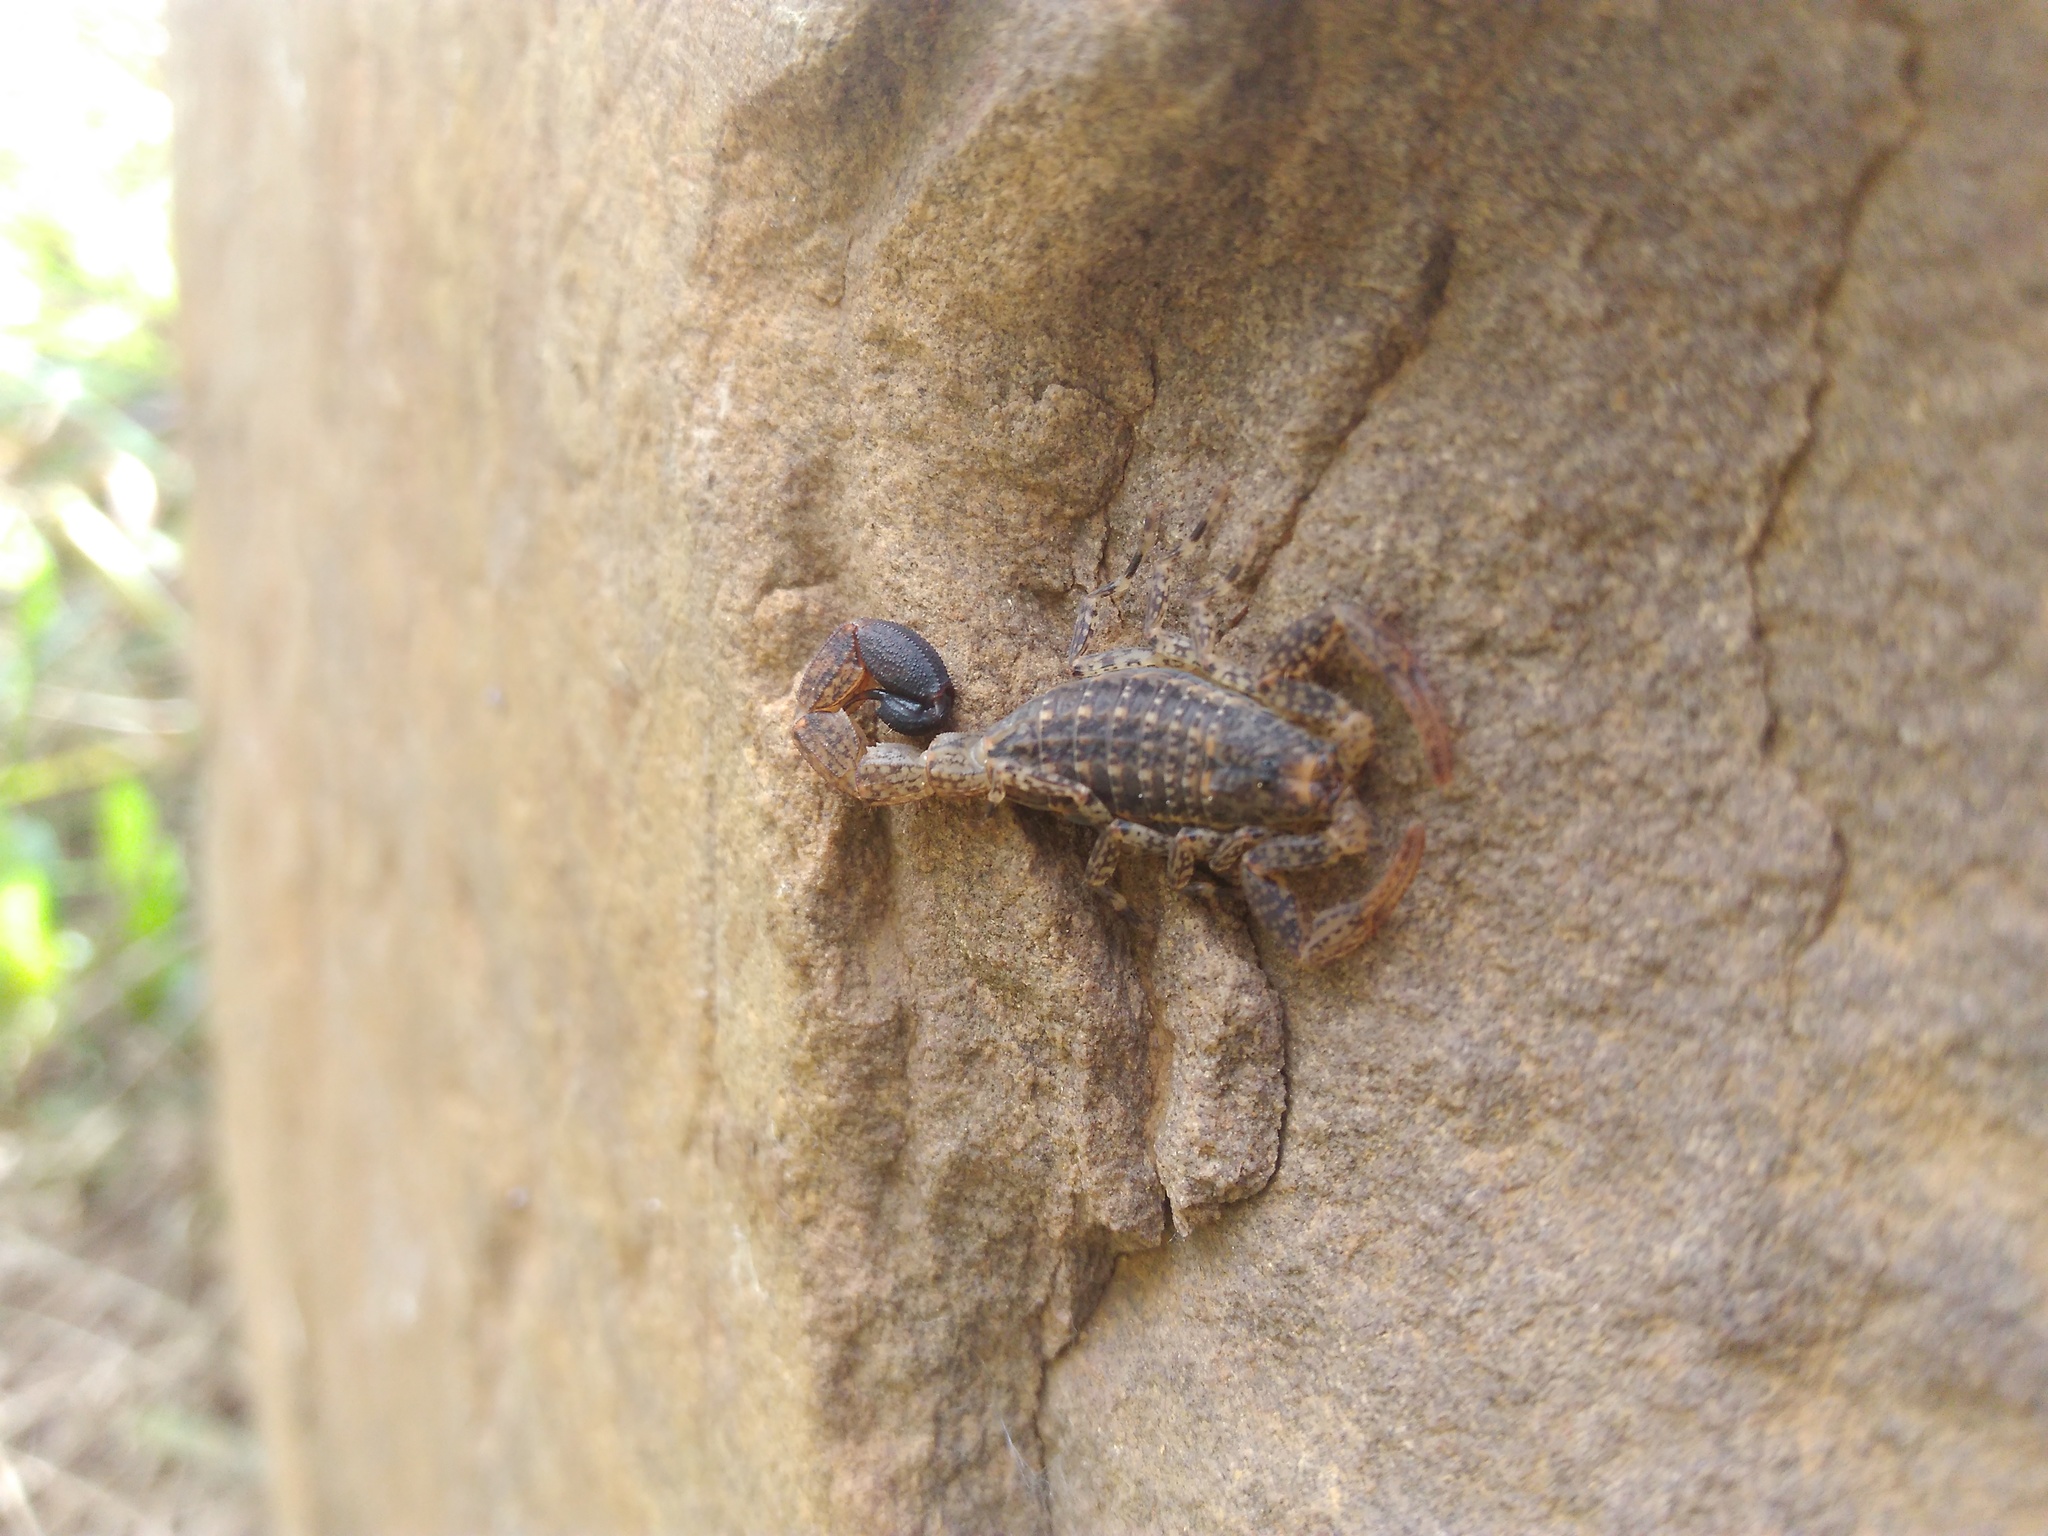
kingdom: Animalia
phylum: Arthropoda
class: Arachnida
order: Scorpiones
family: Buthidae
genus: Tityus
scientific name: Tityus columbianus
